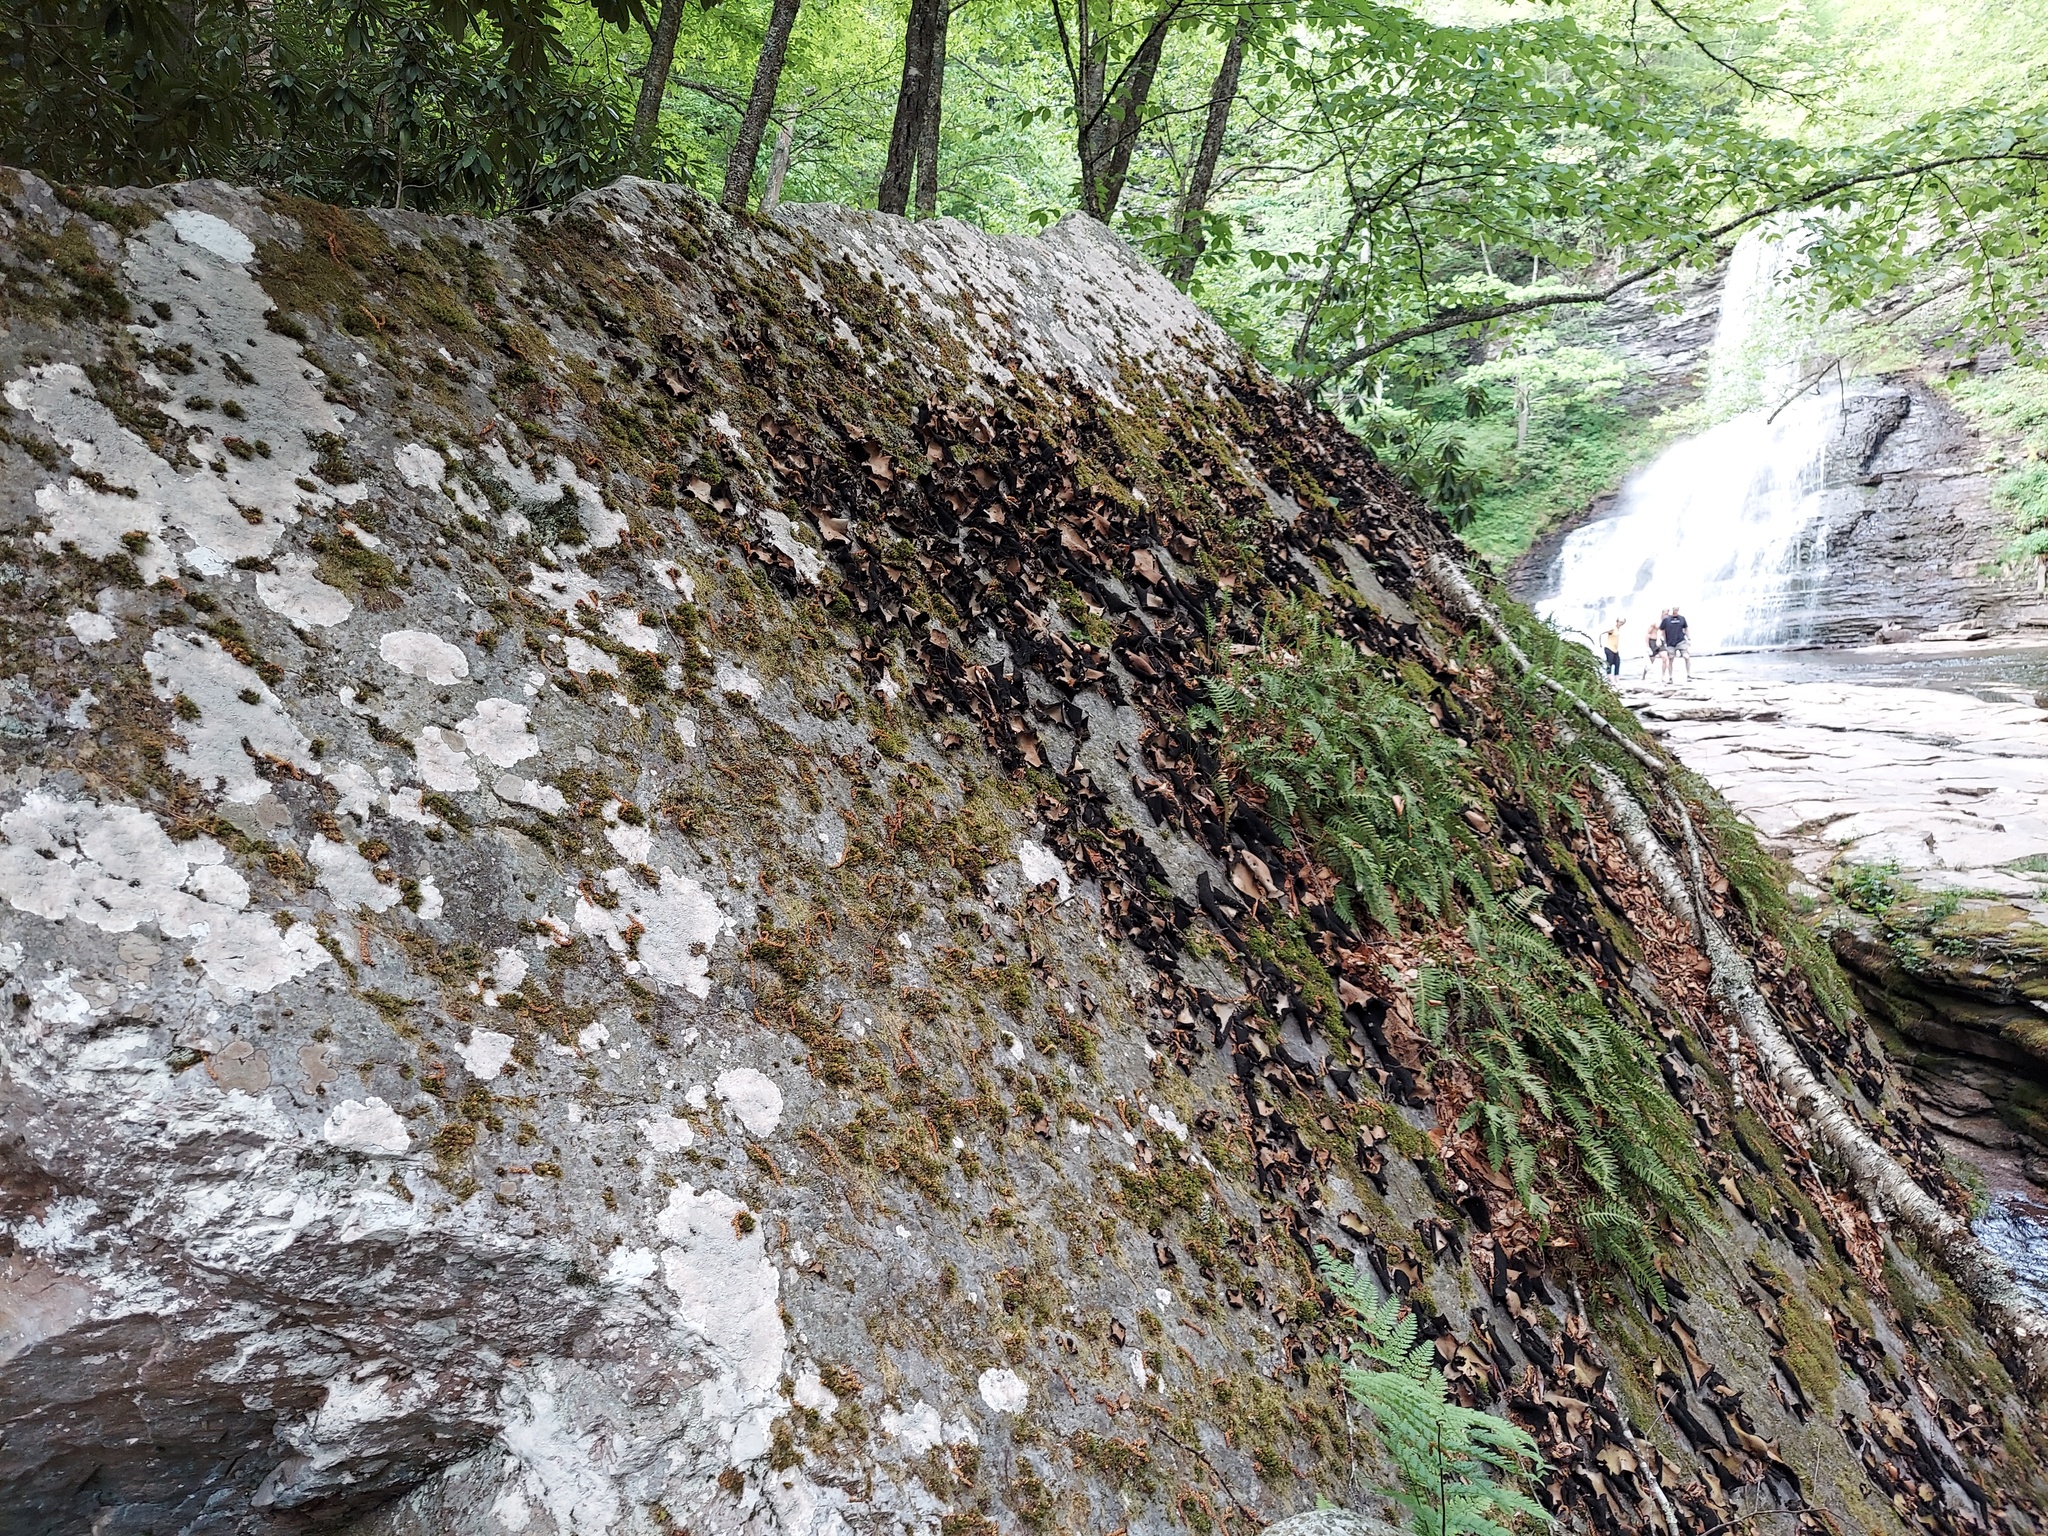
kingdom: Fungi
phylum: Ascomycota
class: Lecanoromycetes
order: Umbilicariales
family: Umbilicariaceae
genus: Umbilicaria
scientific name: Umbilicaria mammulata
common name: Smooth rock tripe
